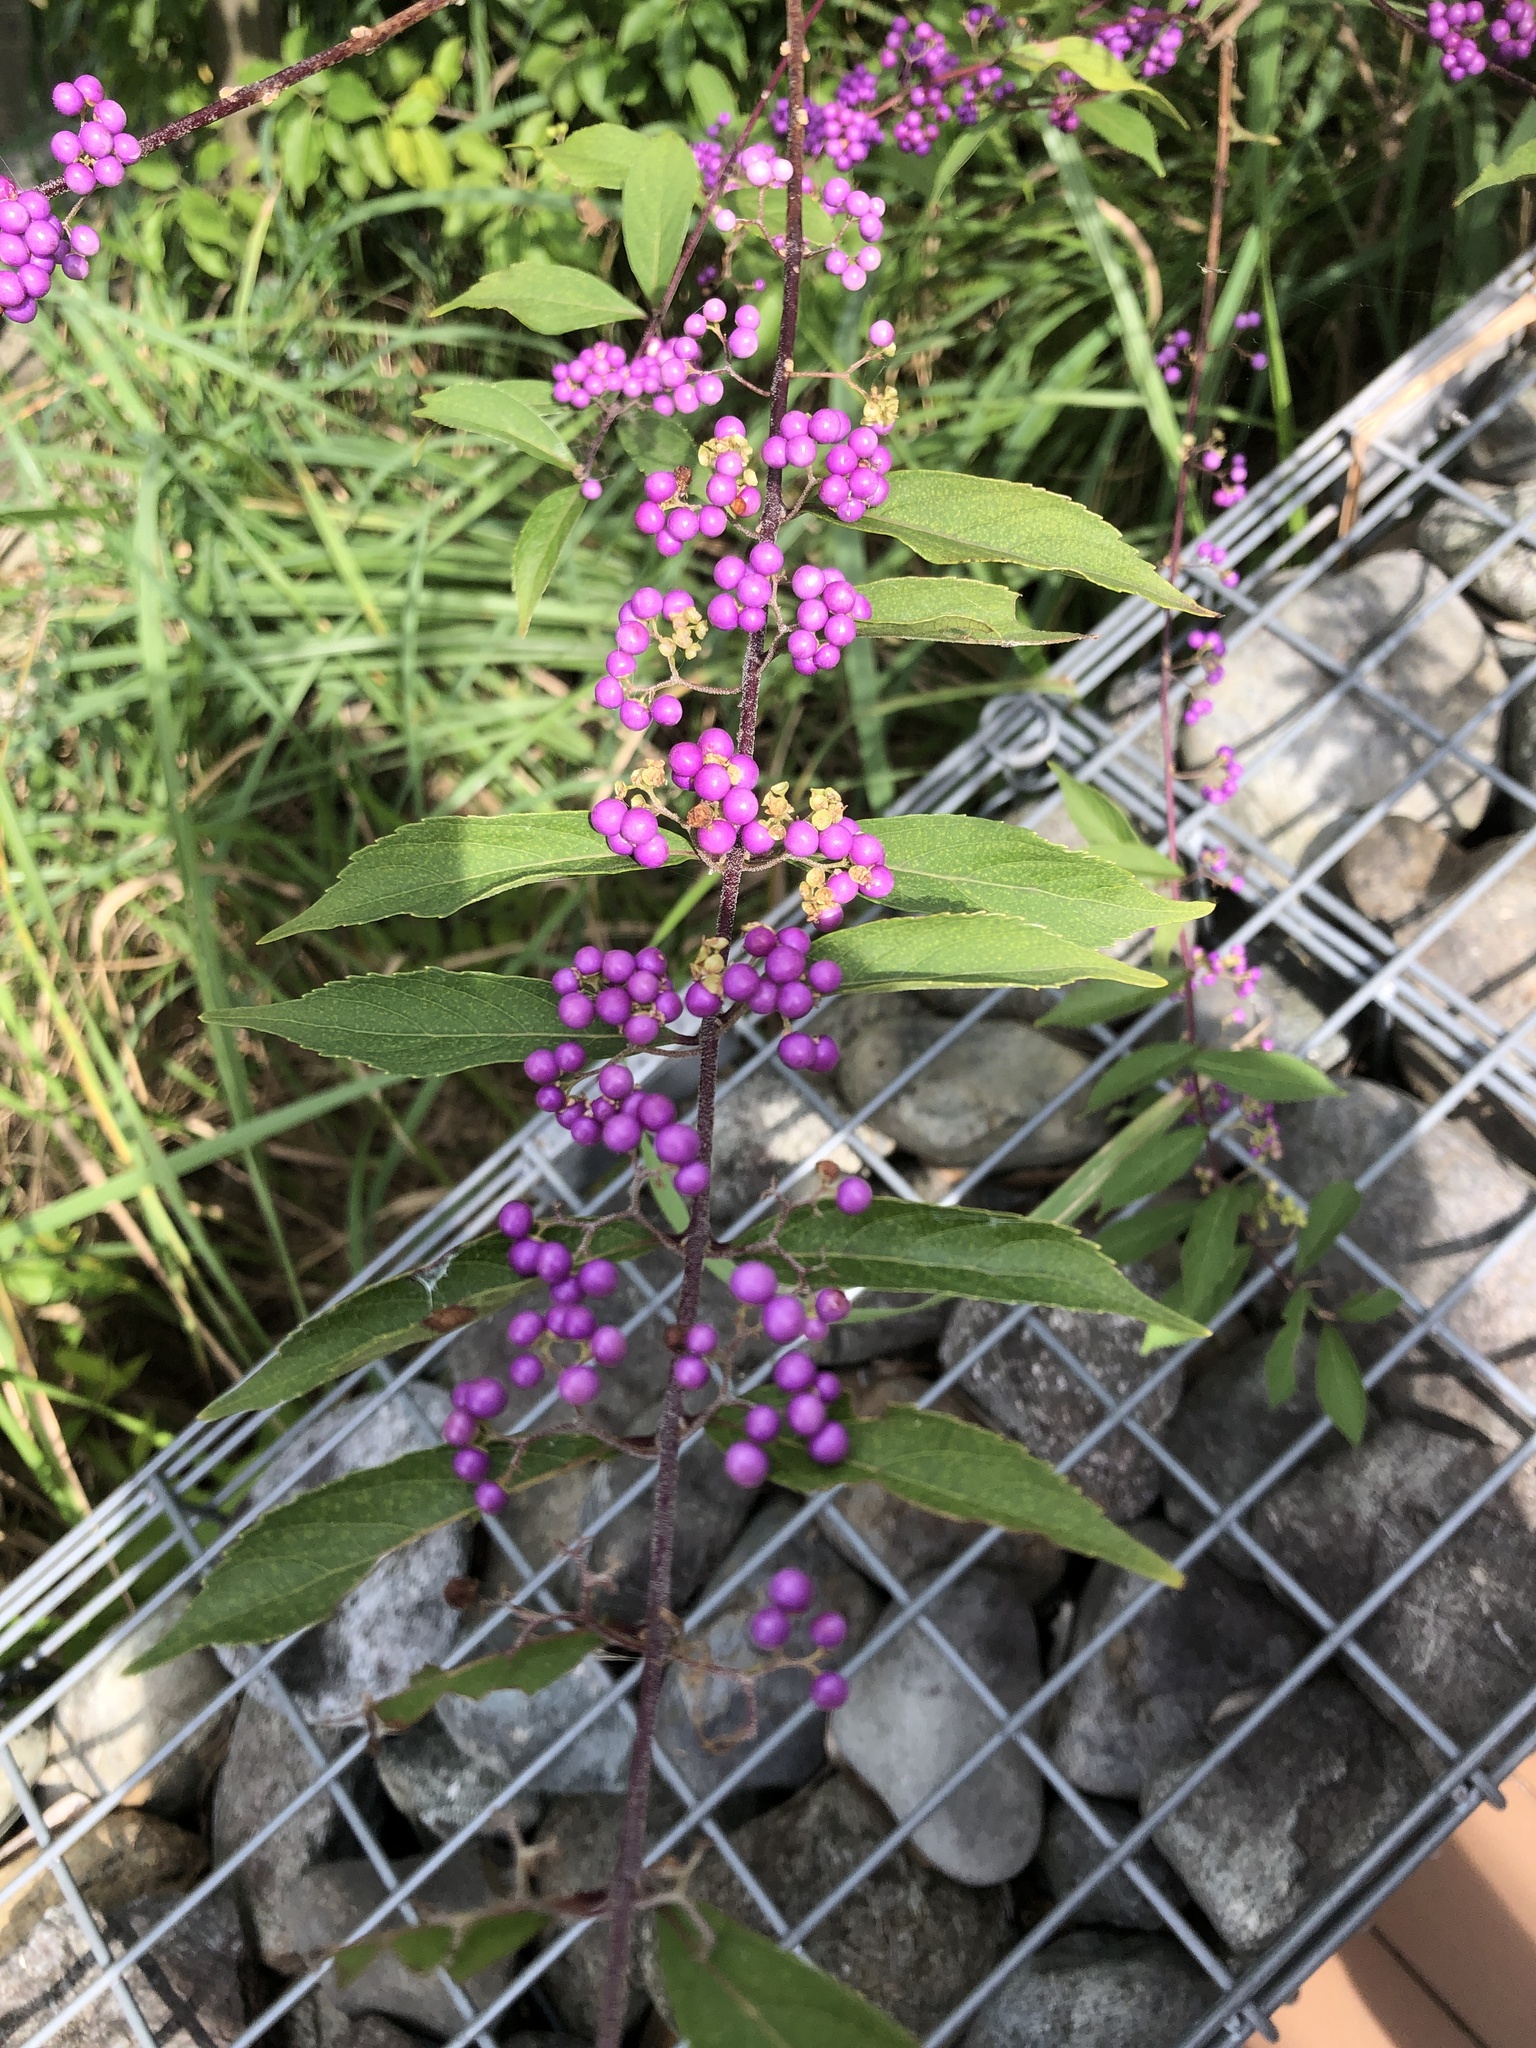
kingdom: Plantae
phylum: Tracheophyta
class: Magnoliopsida
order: Lamiales
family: Lamiaceae
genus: Callicarpa
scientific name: Callicarpa dichotoma
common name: Purple beauty-berry
